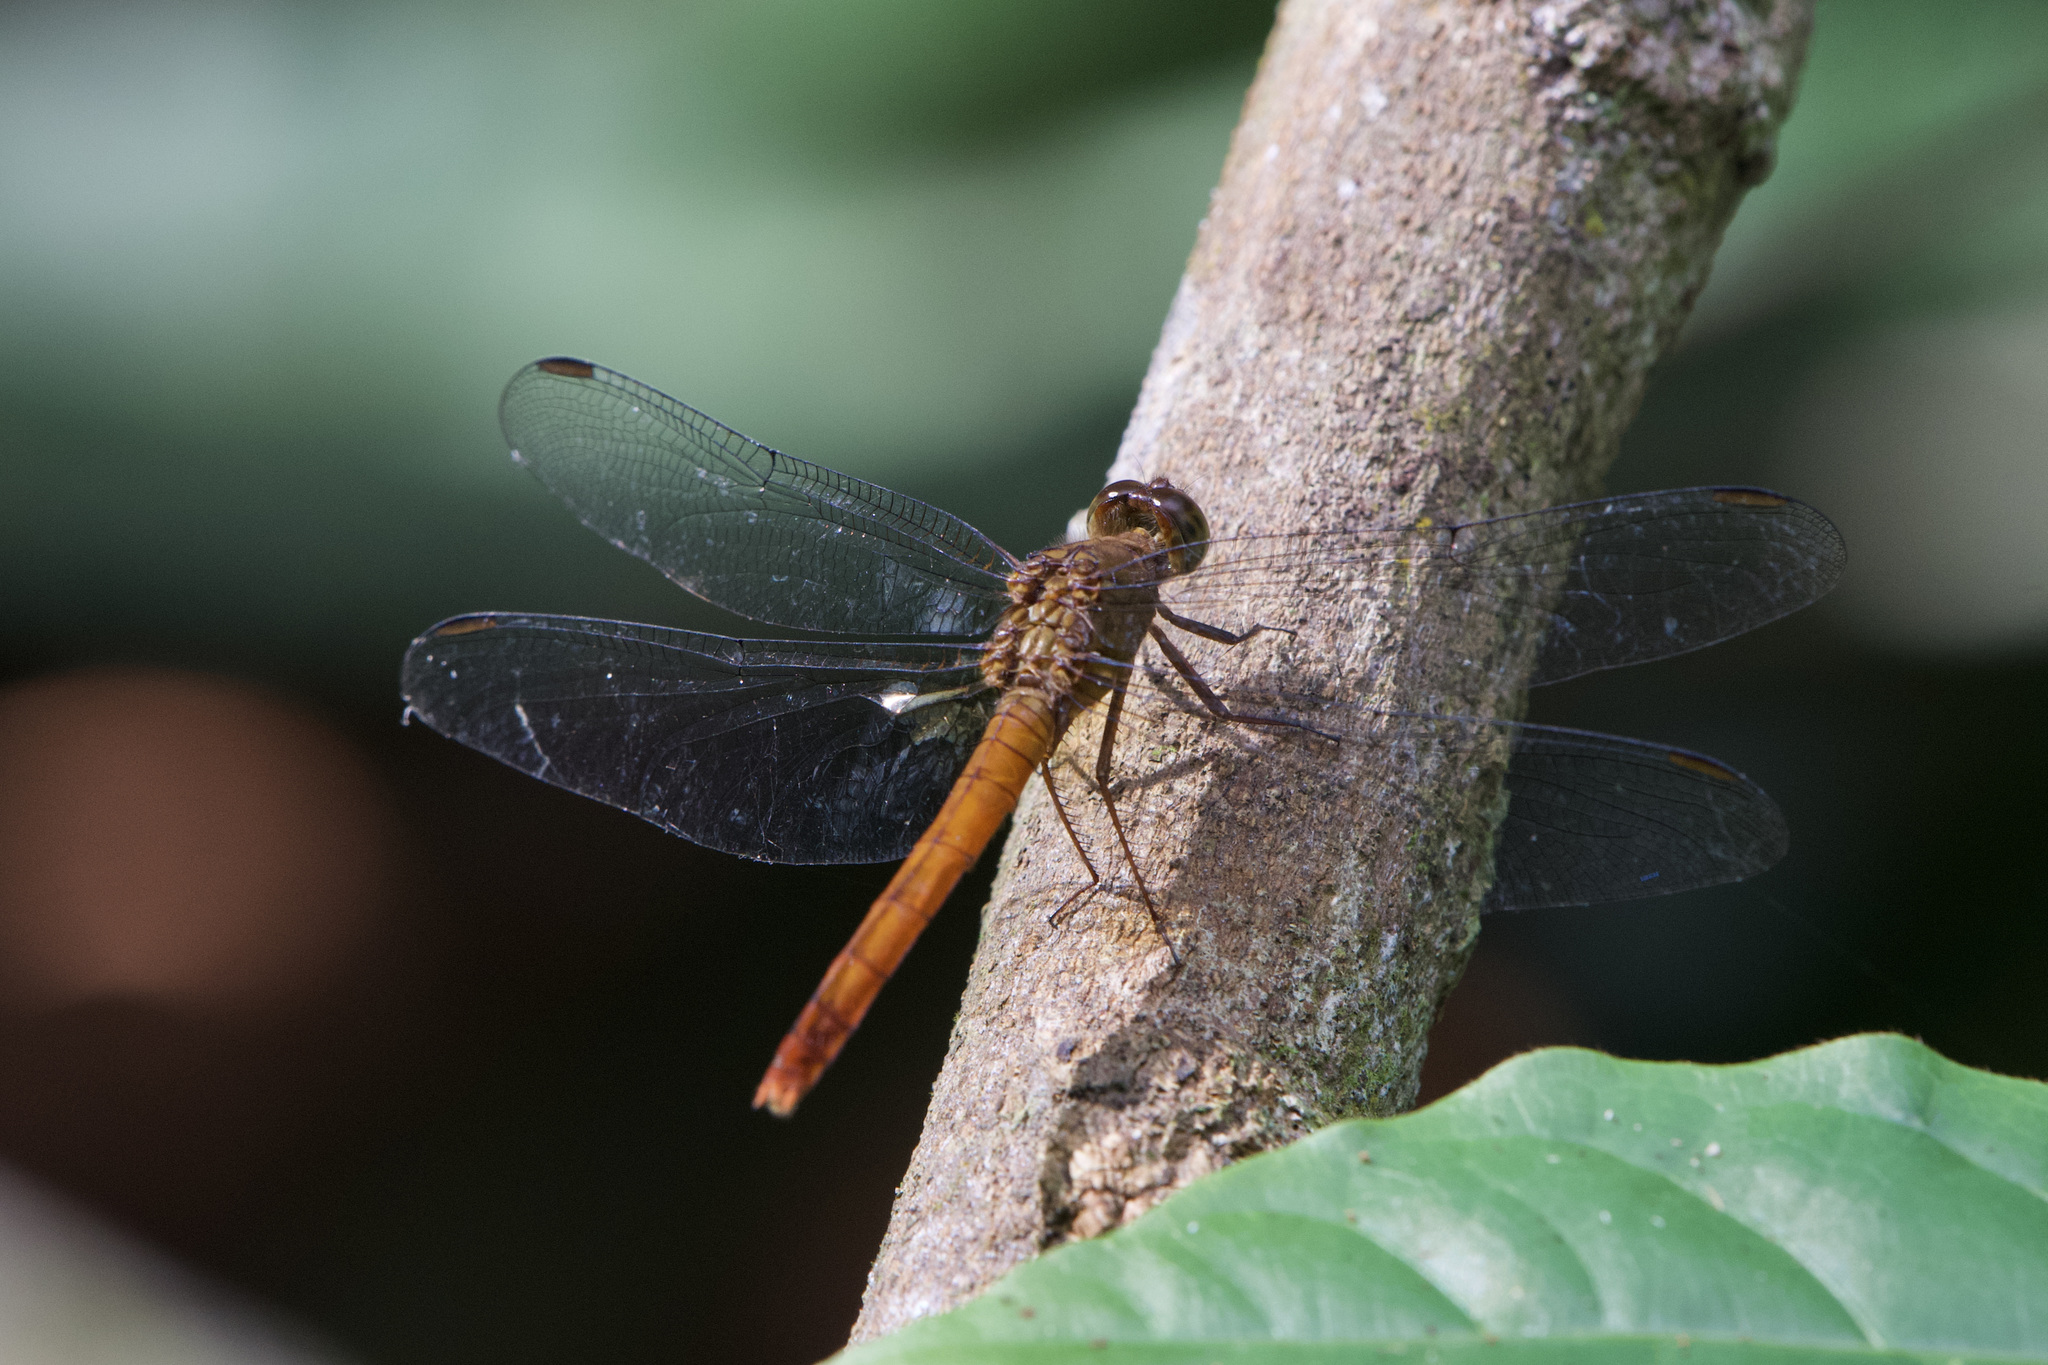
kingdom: Animalia
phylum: Arthropoda
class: Insecta
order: Odonata
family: Libellulidae
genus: Rhodopygia
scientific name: Rhodopygia hinei
